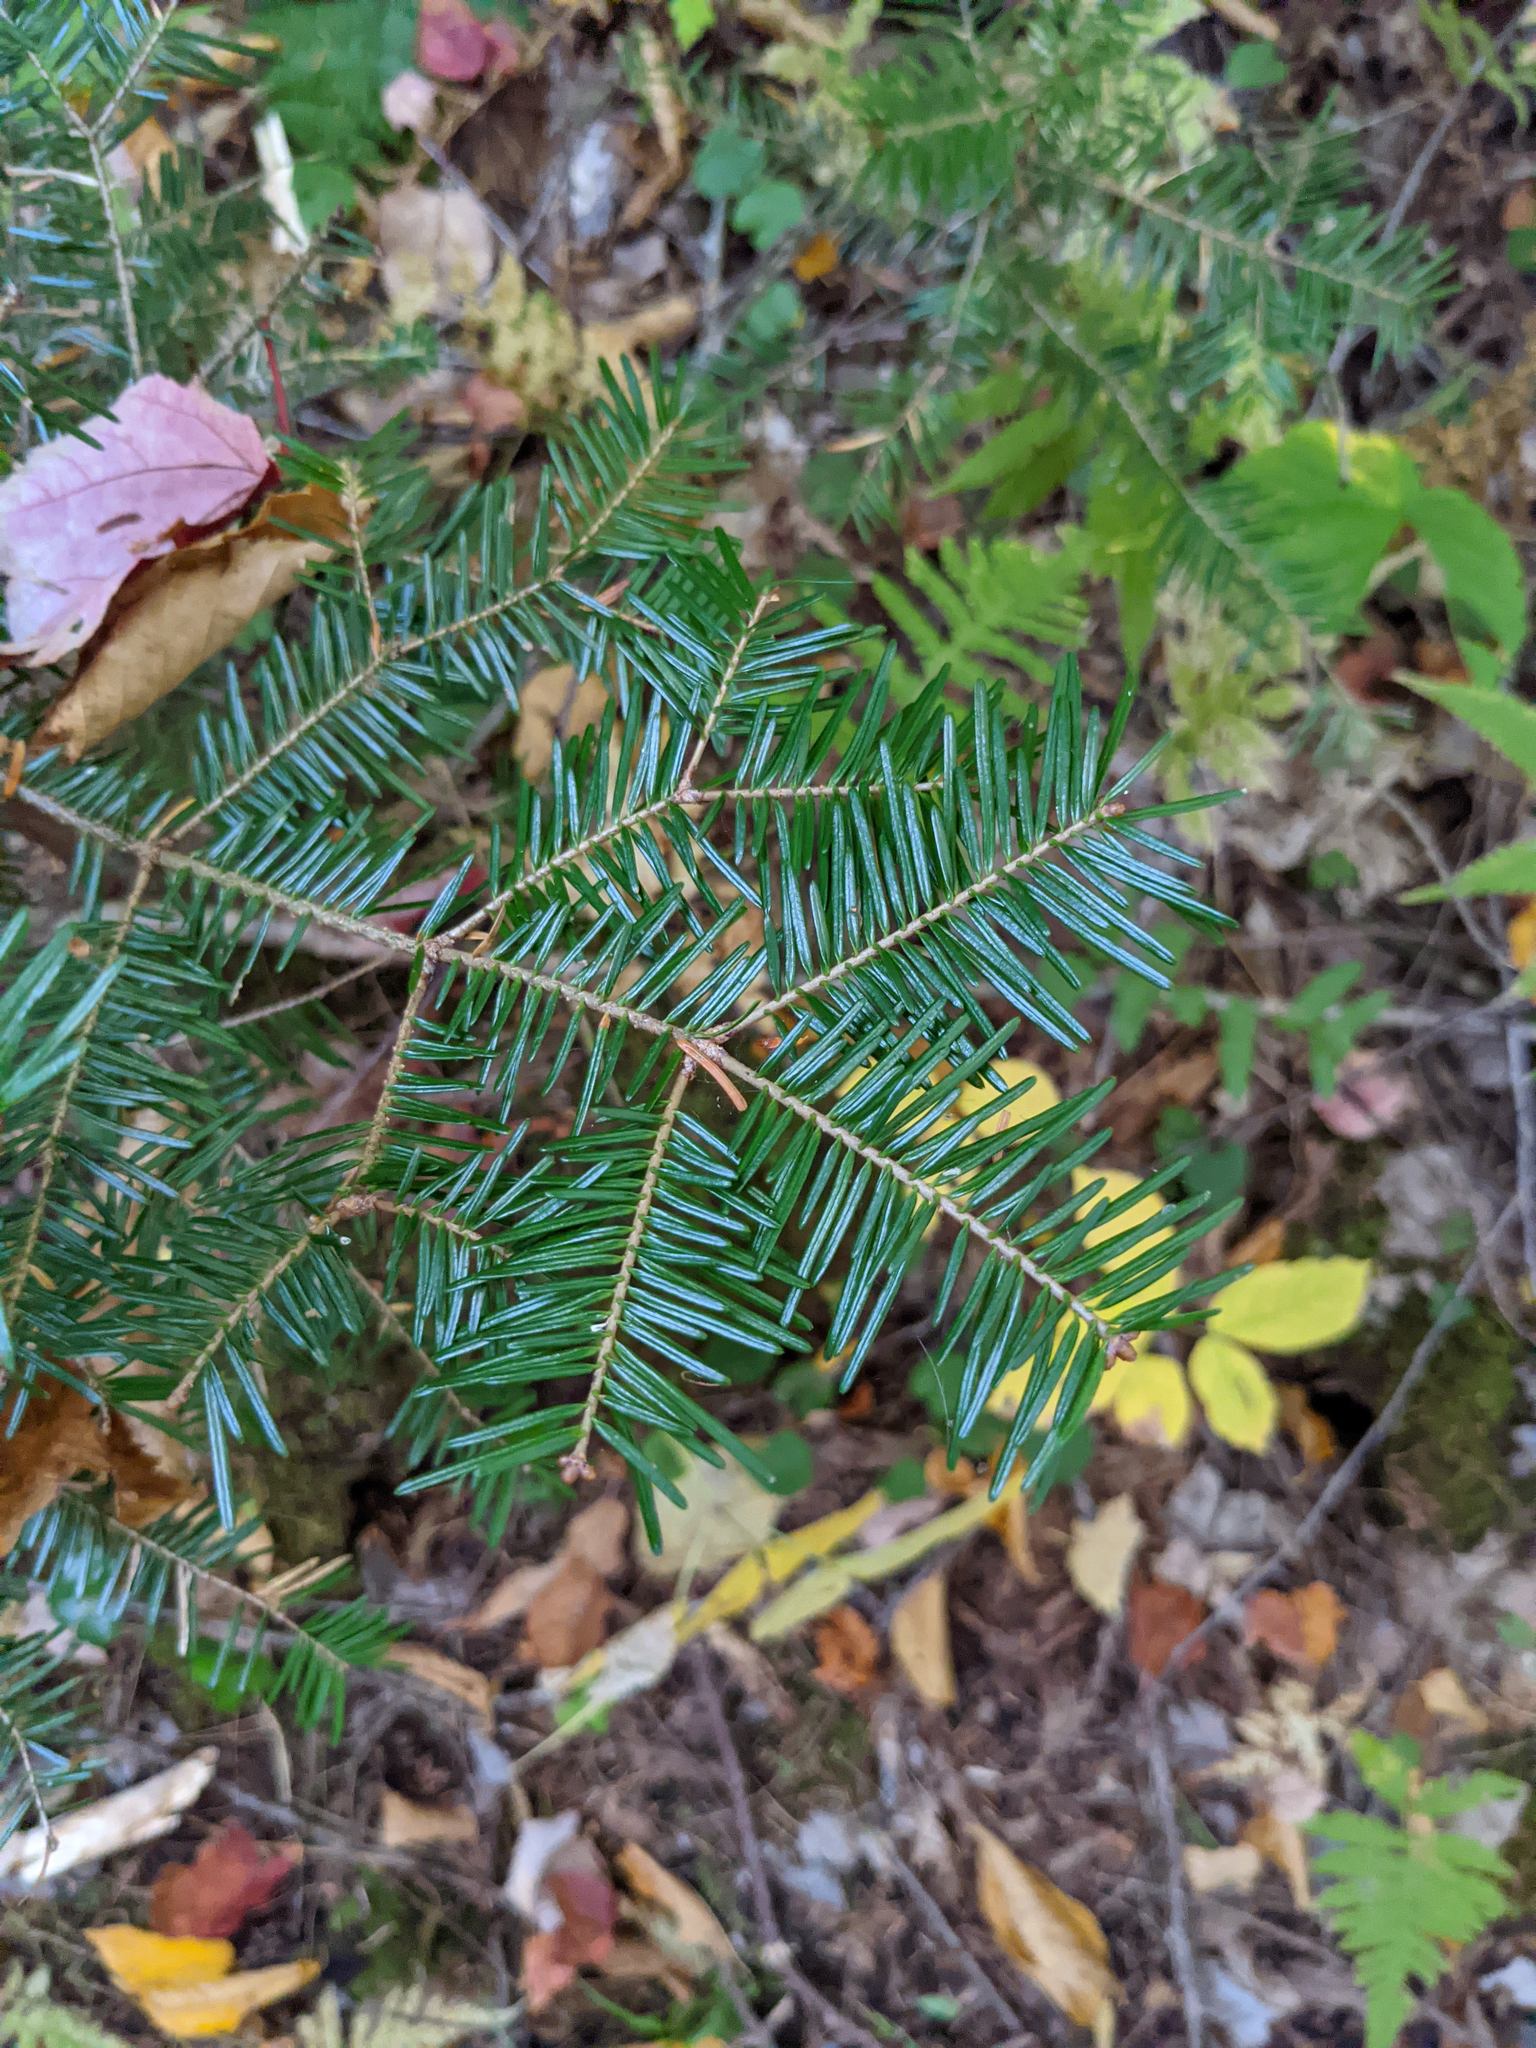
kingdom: Plantae
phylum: Tracheophyta
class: Pinopsida
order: Pinales
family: Pinaceae
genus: Abies
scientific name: Abies balsamea
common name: Balsam fir
